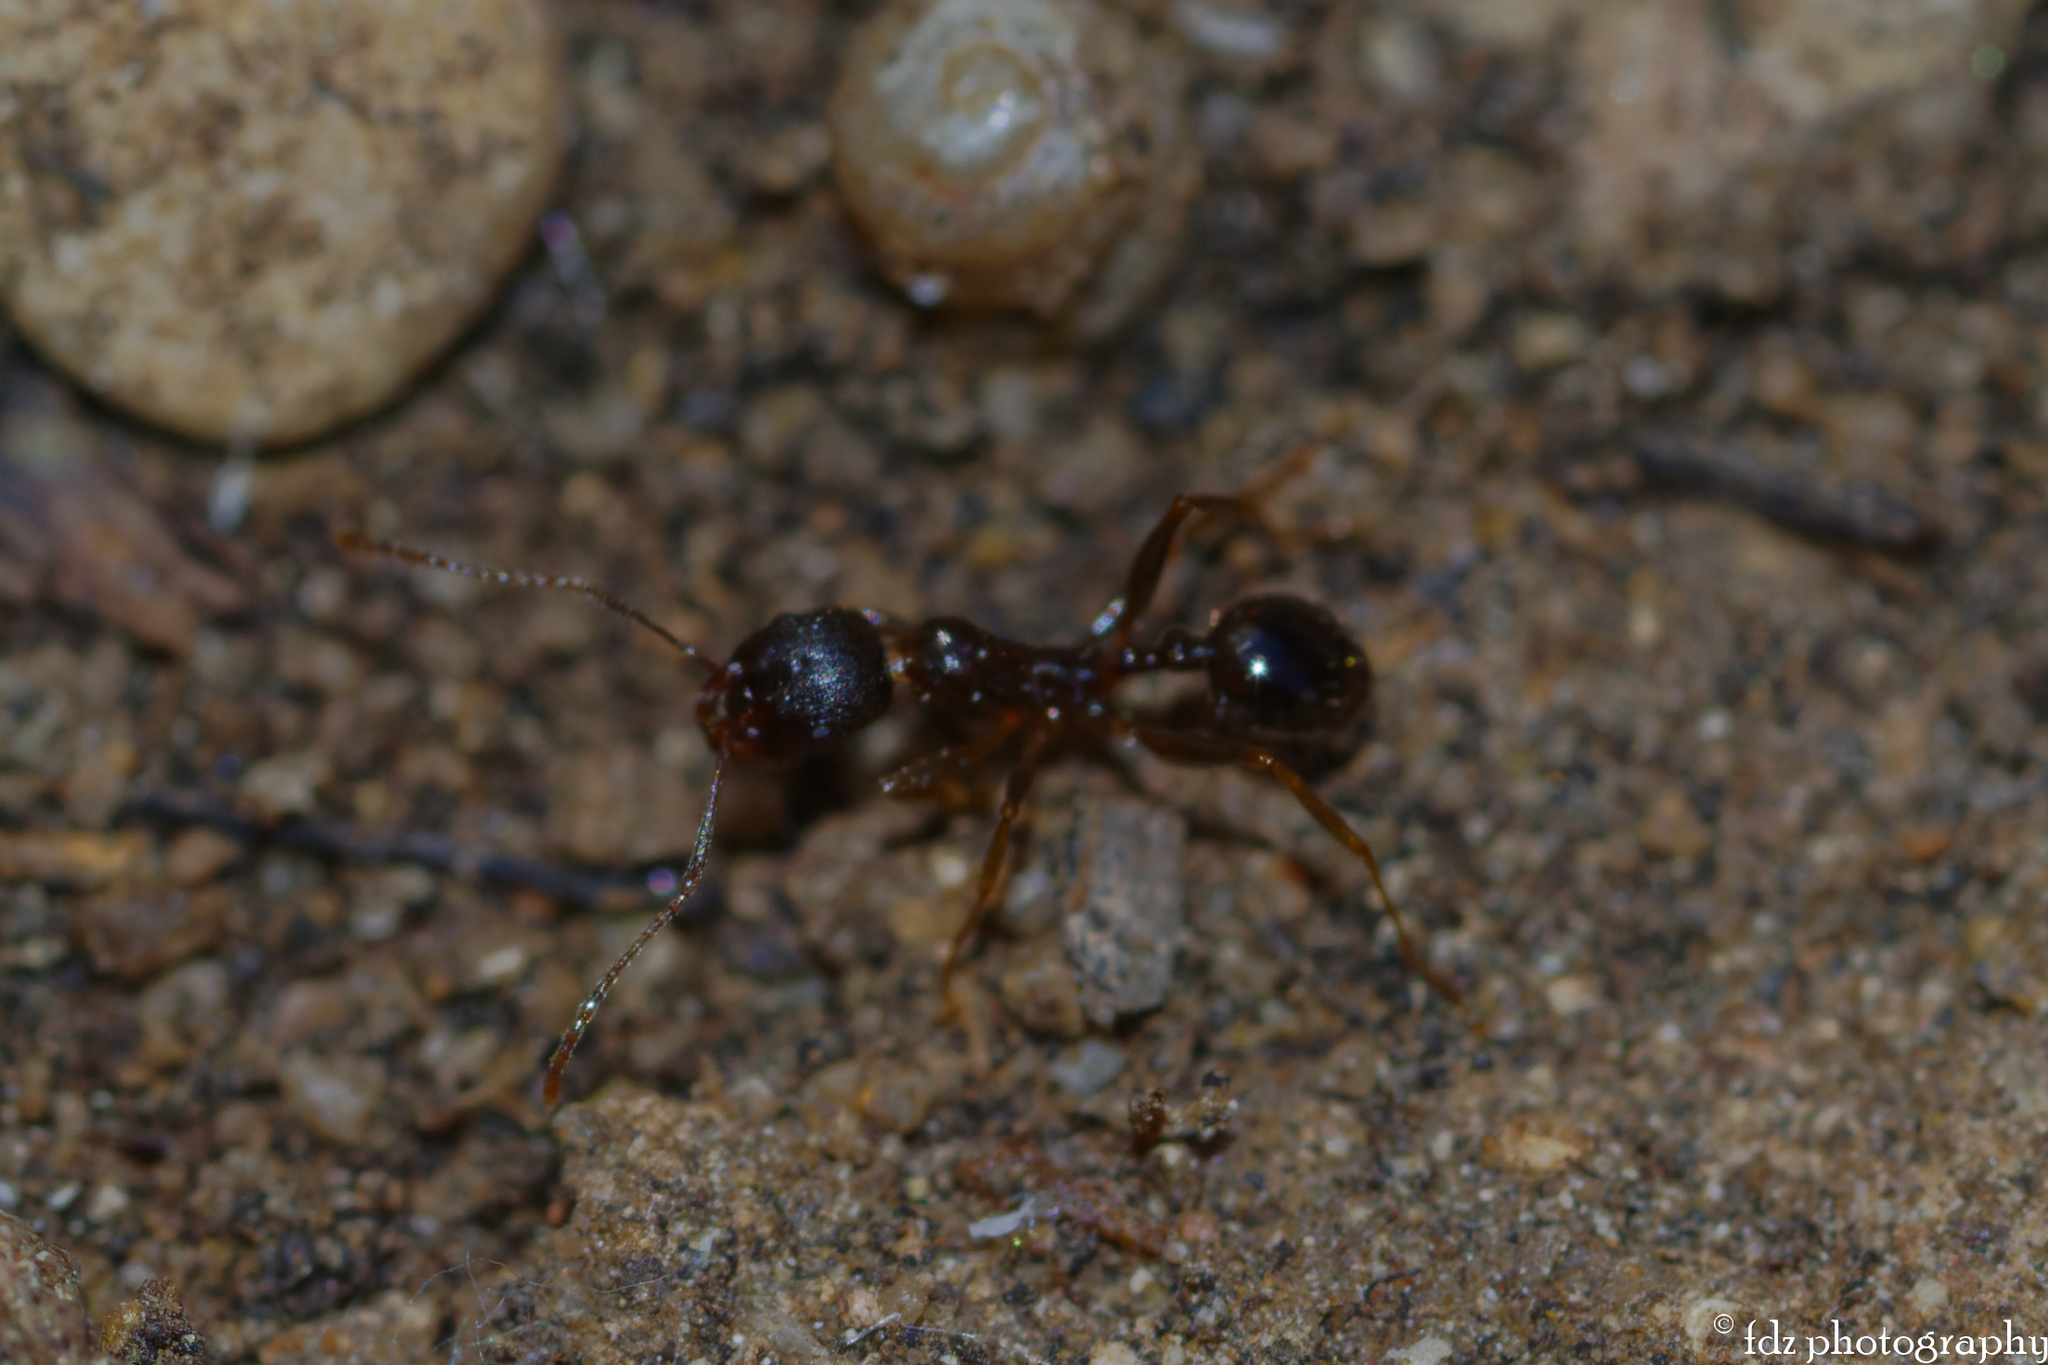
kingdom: Animalia
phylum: Arthropoda
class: Insecta
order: Hymenoptera
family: Formicidae
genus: Aphaenogaster
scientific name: Aphaenogaster gibbosa
